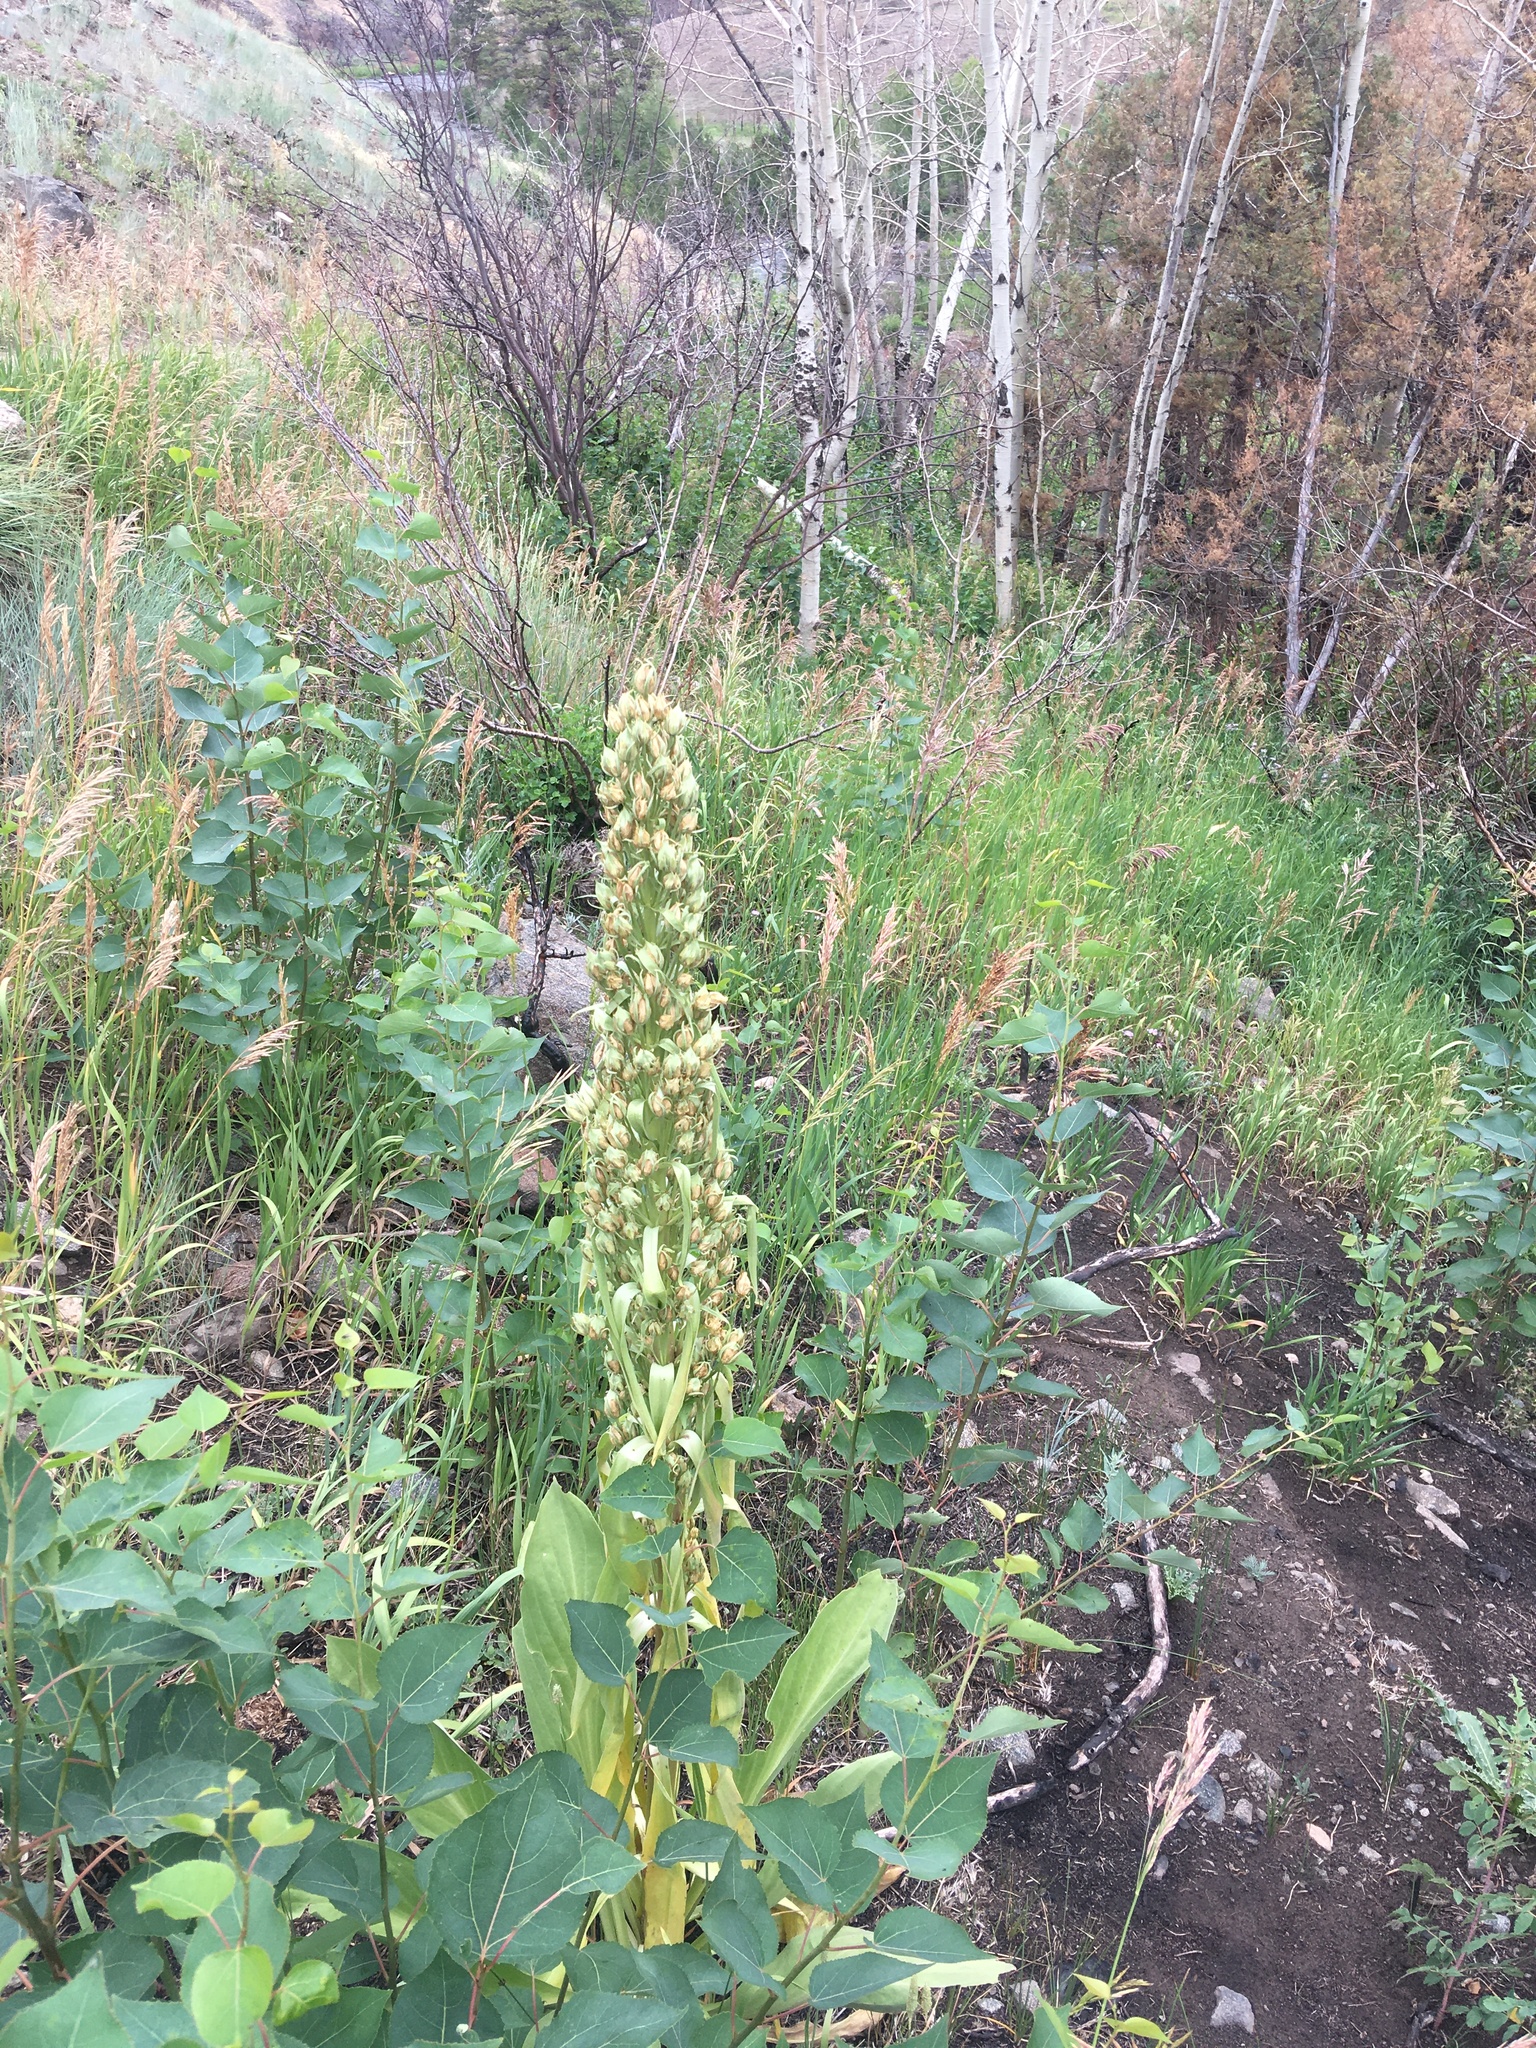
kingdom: Plantae
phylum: Tracheophyta
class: Magnoliopsida
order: Gentianales
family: Gentianaceae
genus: Frasera
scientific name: Frasera speciosa
